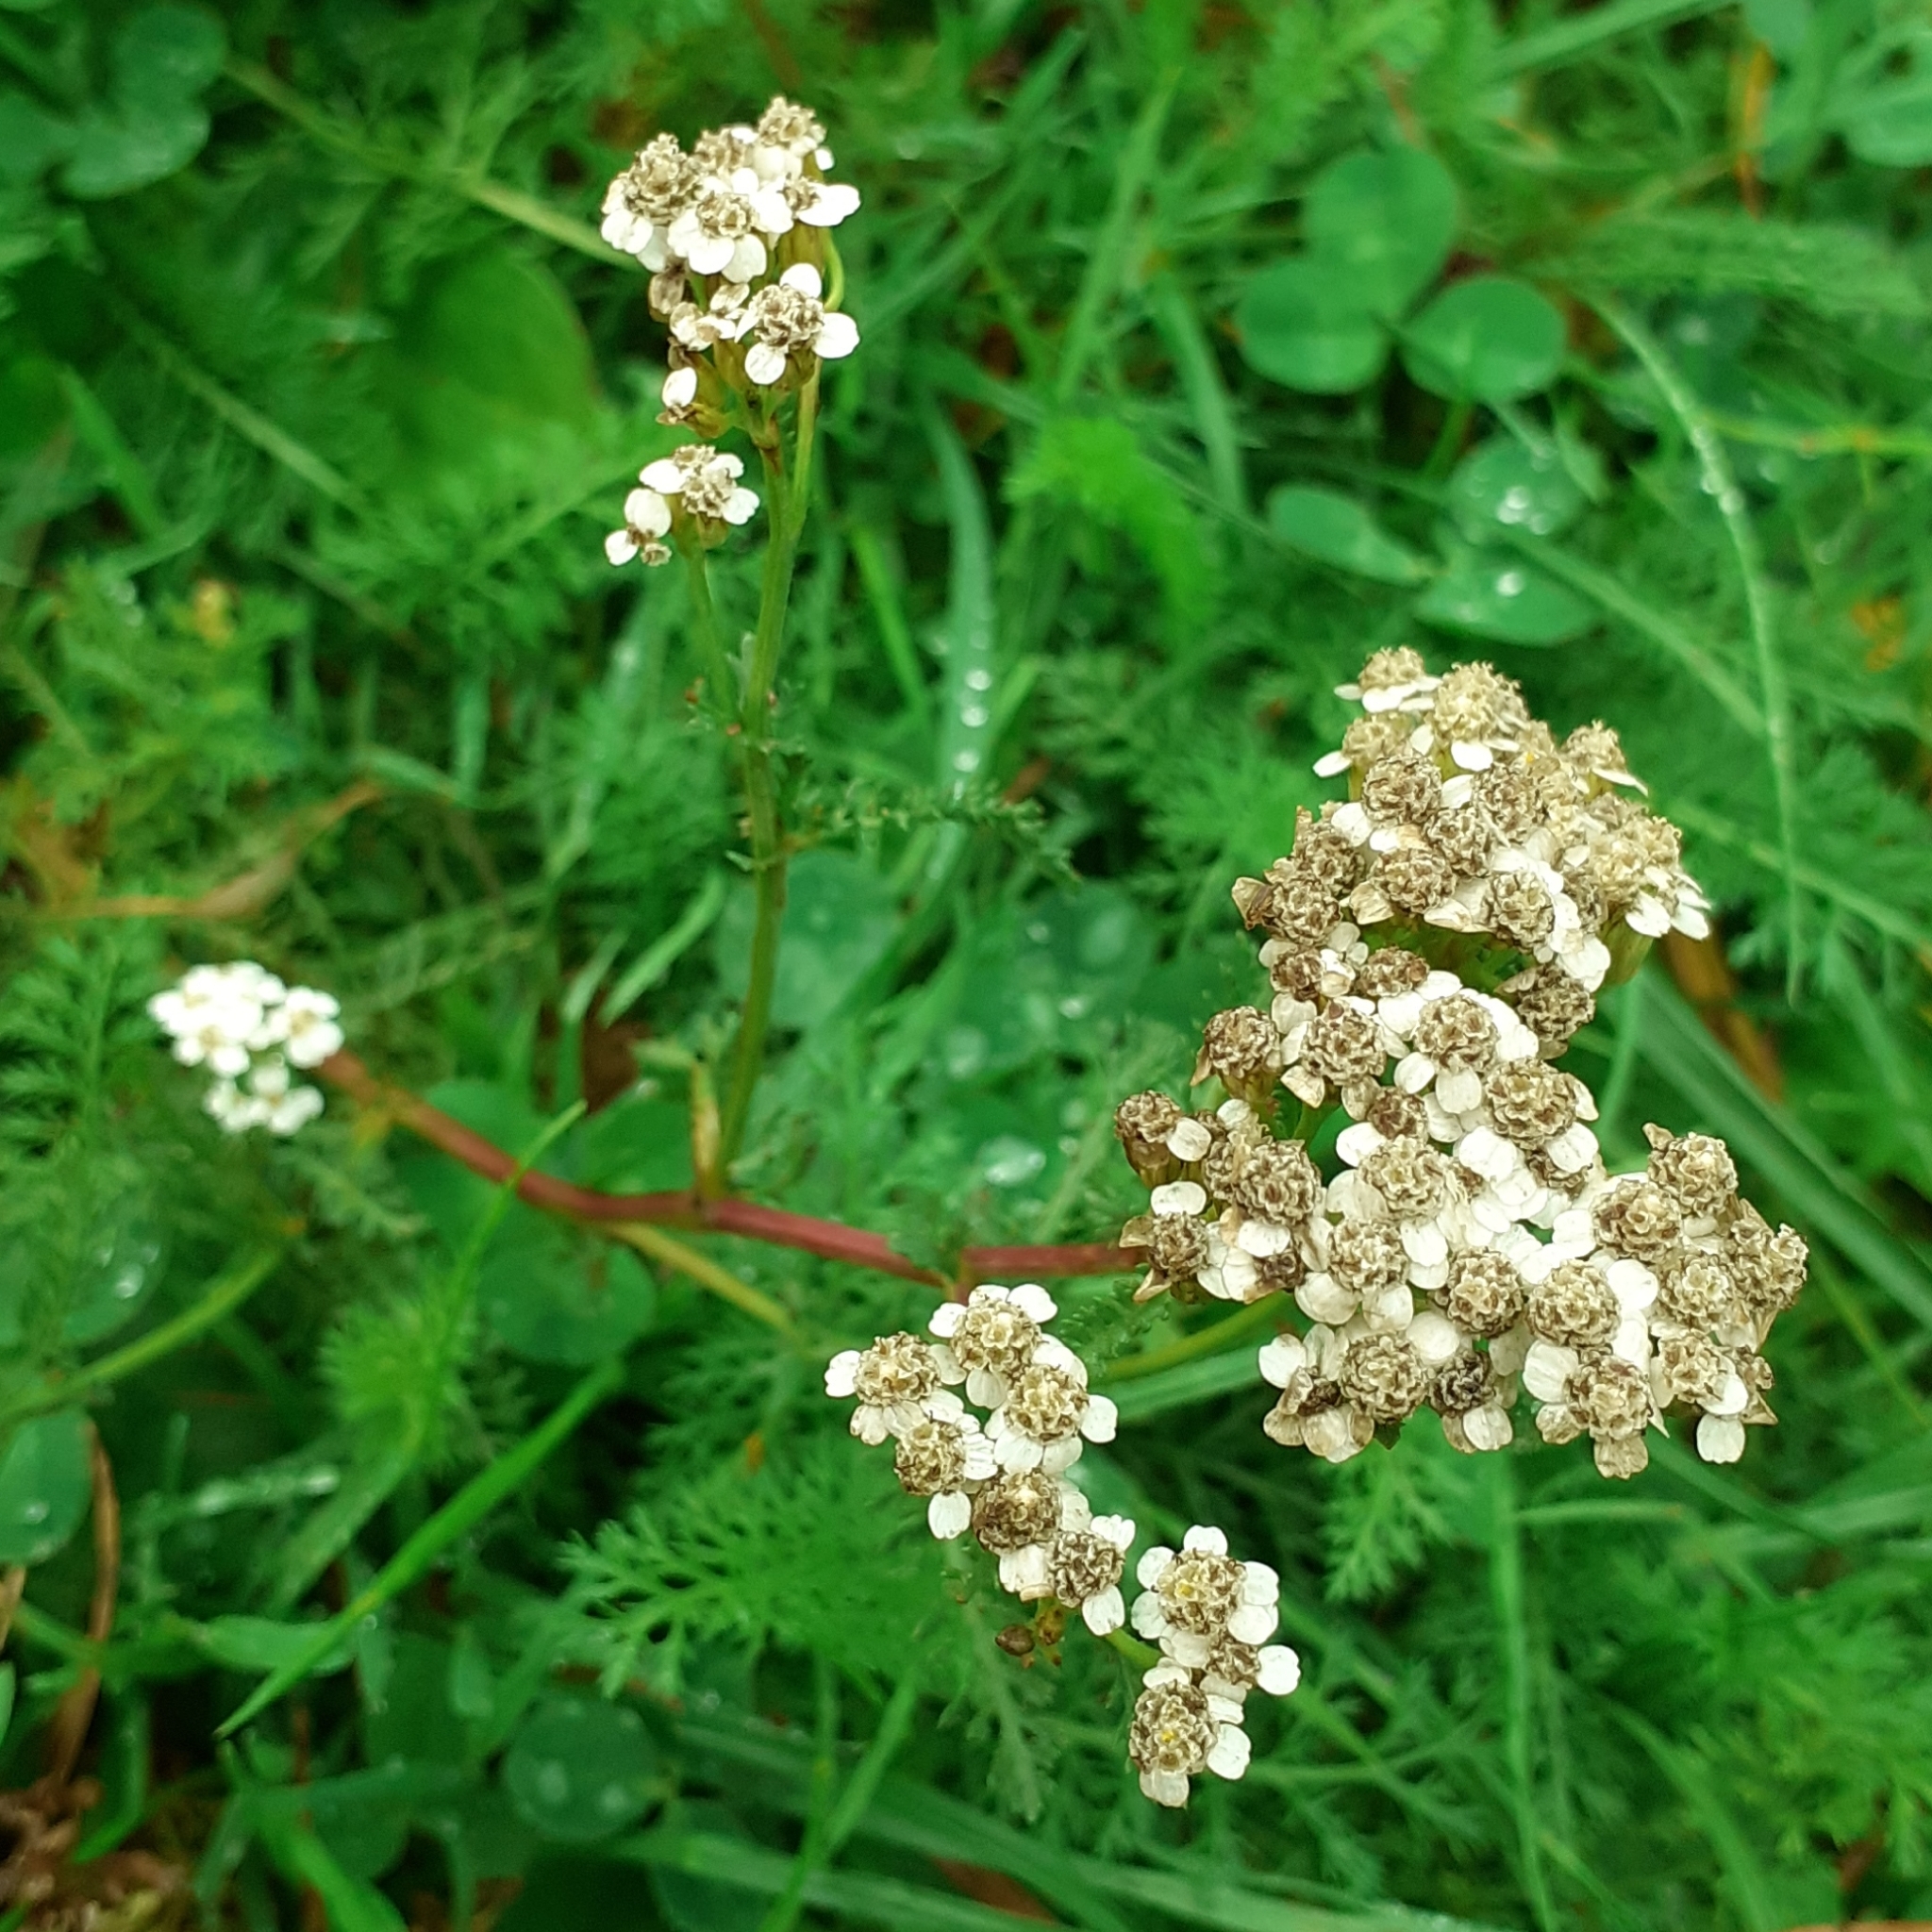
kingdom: Plantae
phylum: Tracheophyta
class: Magnoliopsida
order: Asterales
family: Asteraceae
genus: Achillea
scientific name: Achillea millefolium
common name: Yarrow
